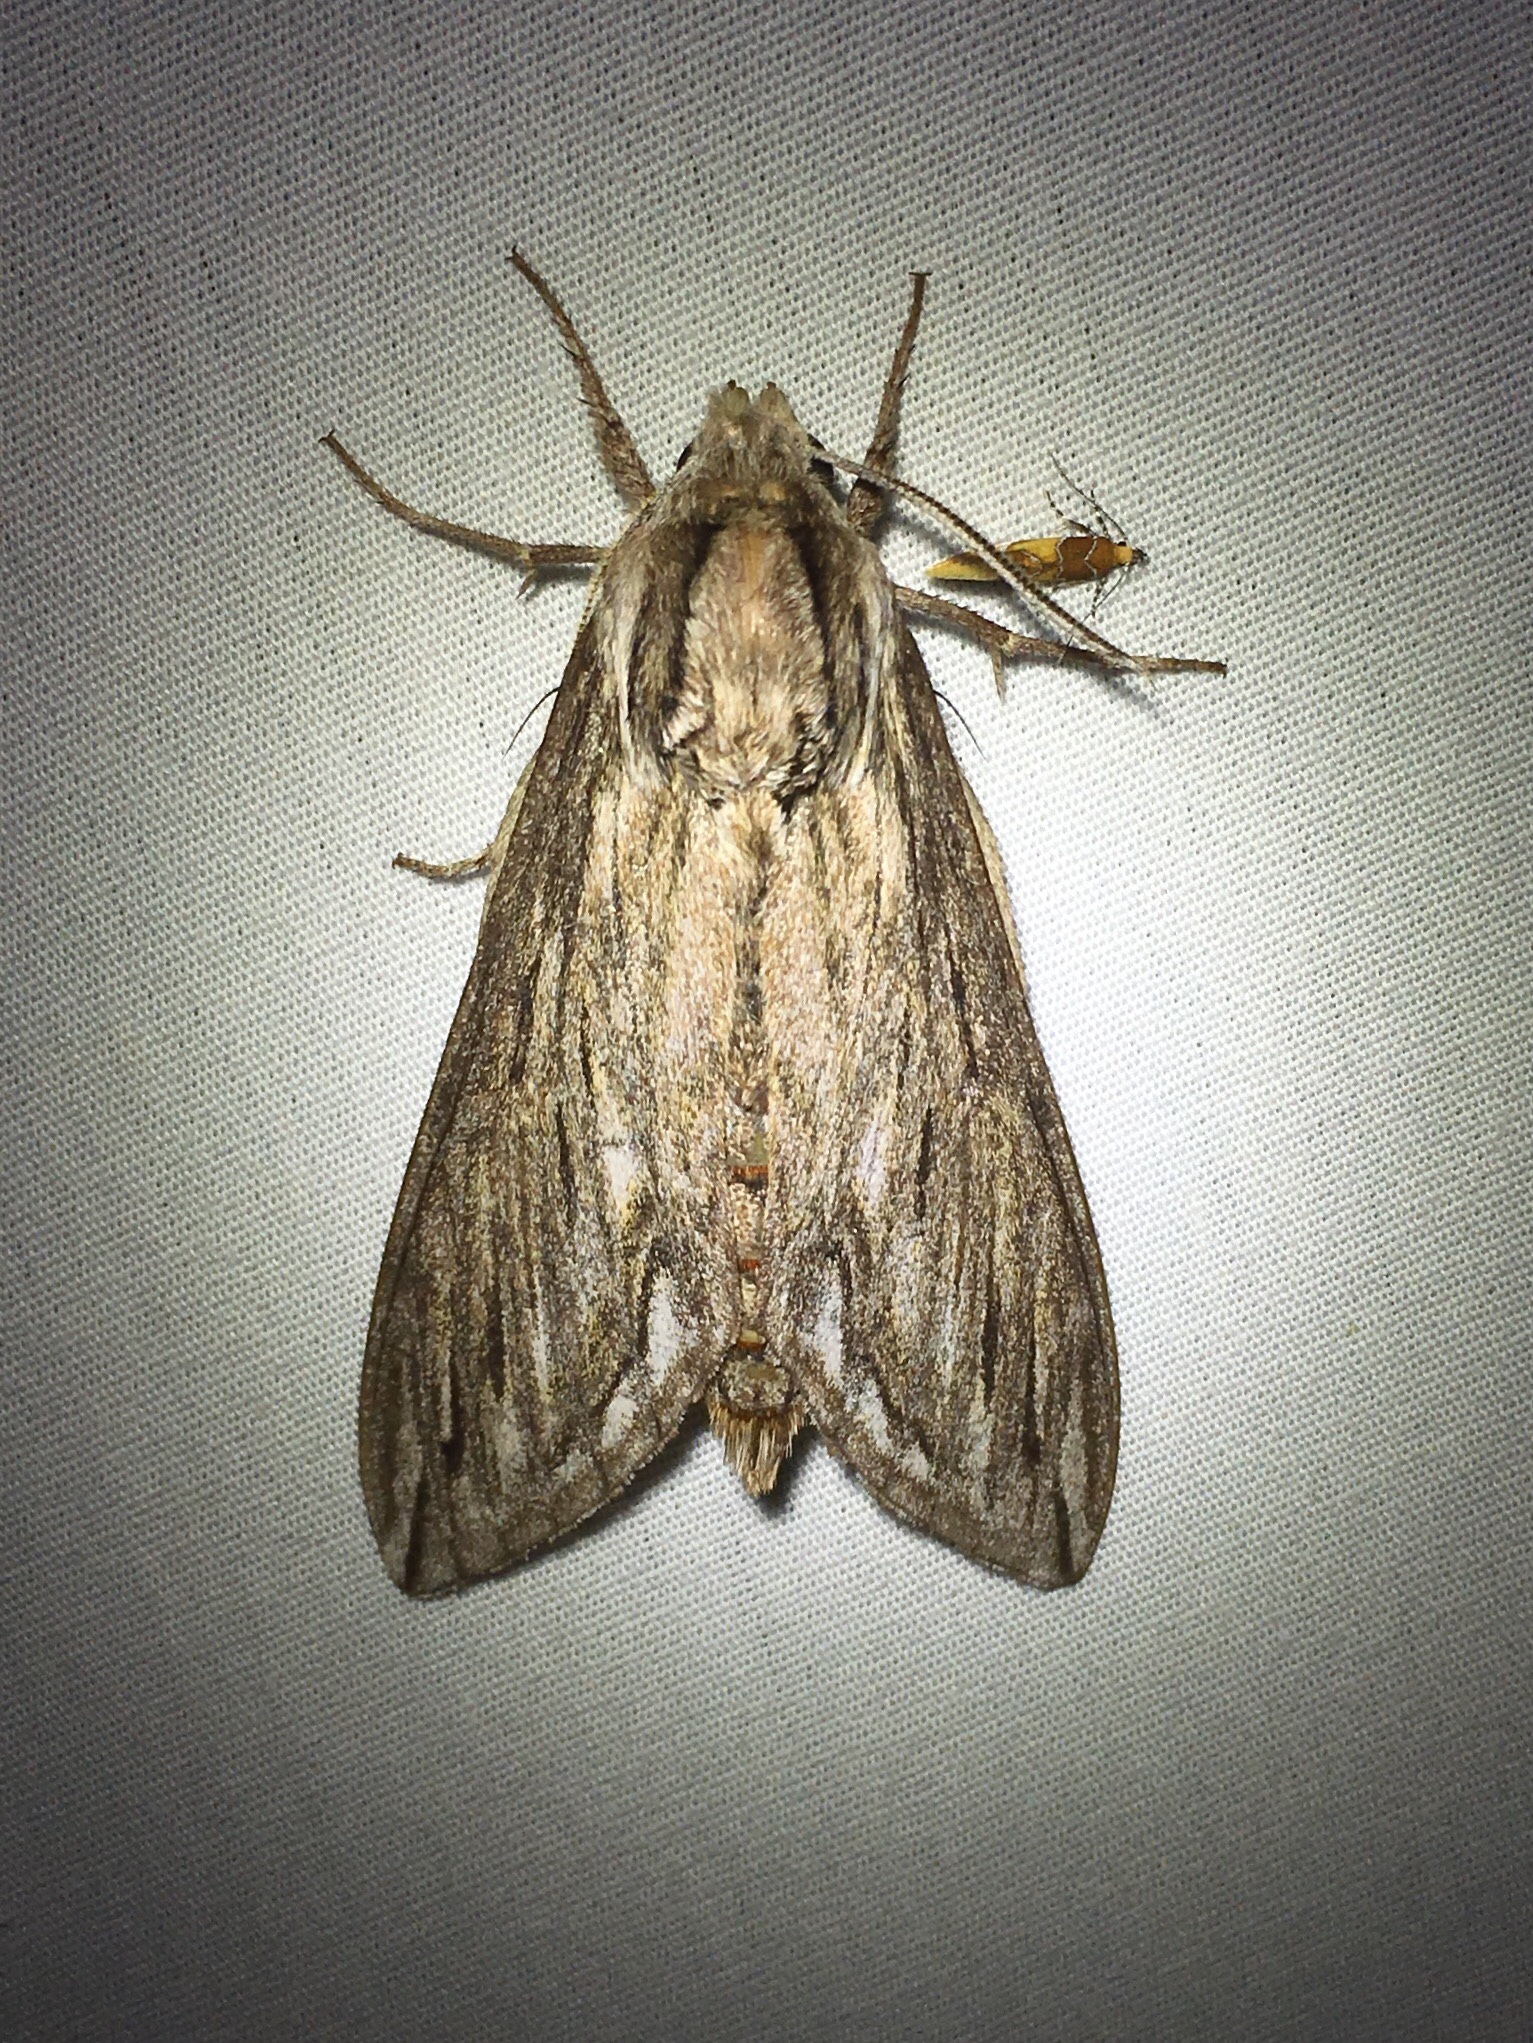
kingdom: Animalia
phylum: Arthropoda
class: Insecta
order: Lepidoptera
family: Sphingidae
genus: Sphinx
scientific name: Sphinx canadensis
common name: Canadian sphinx
